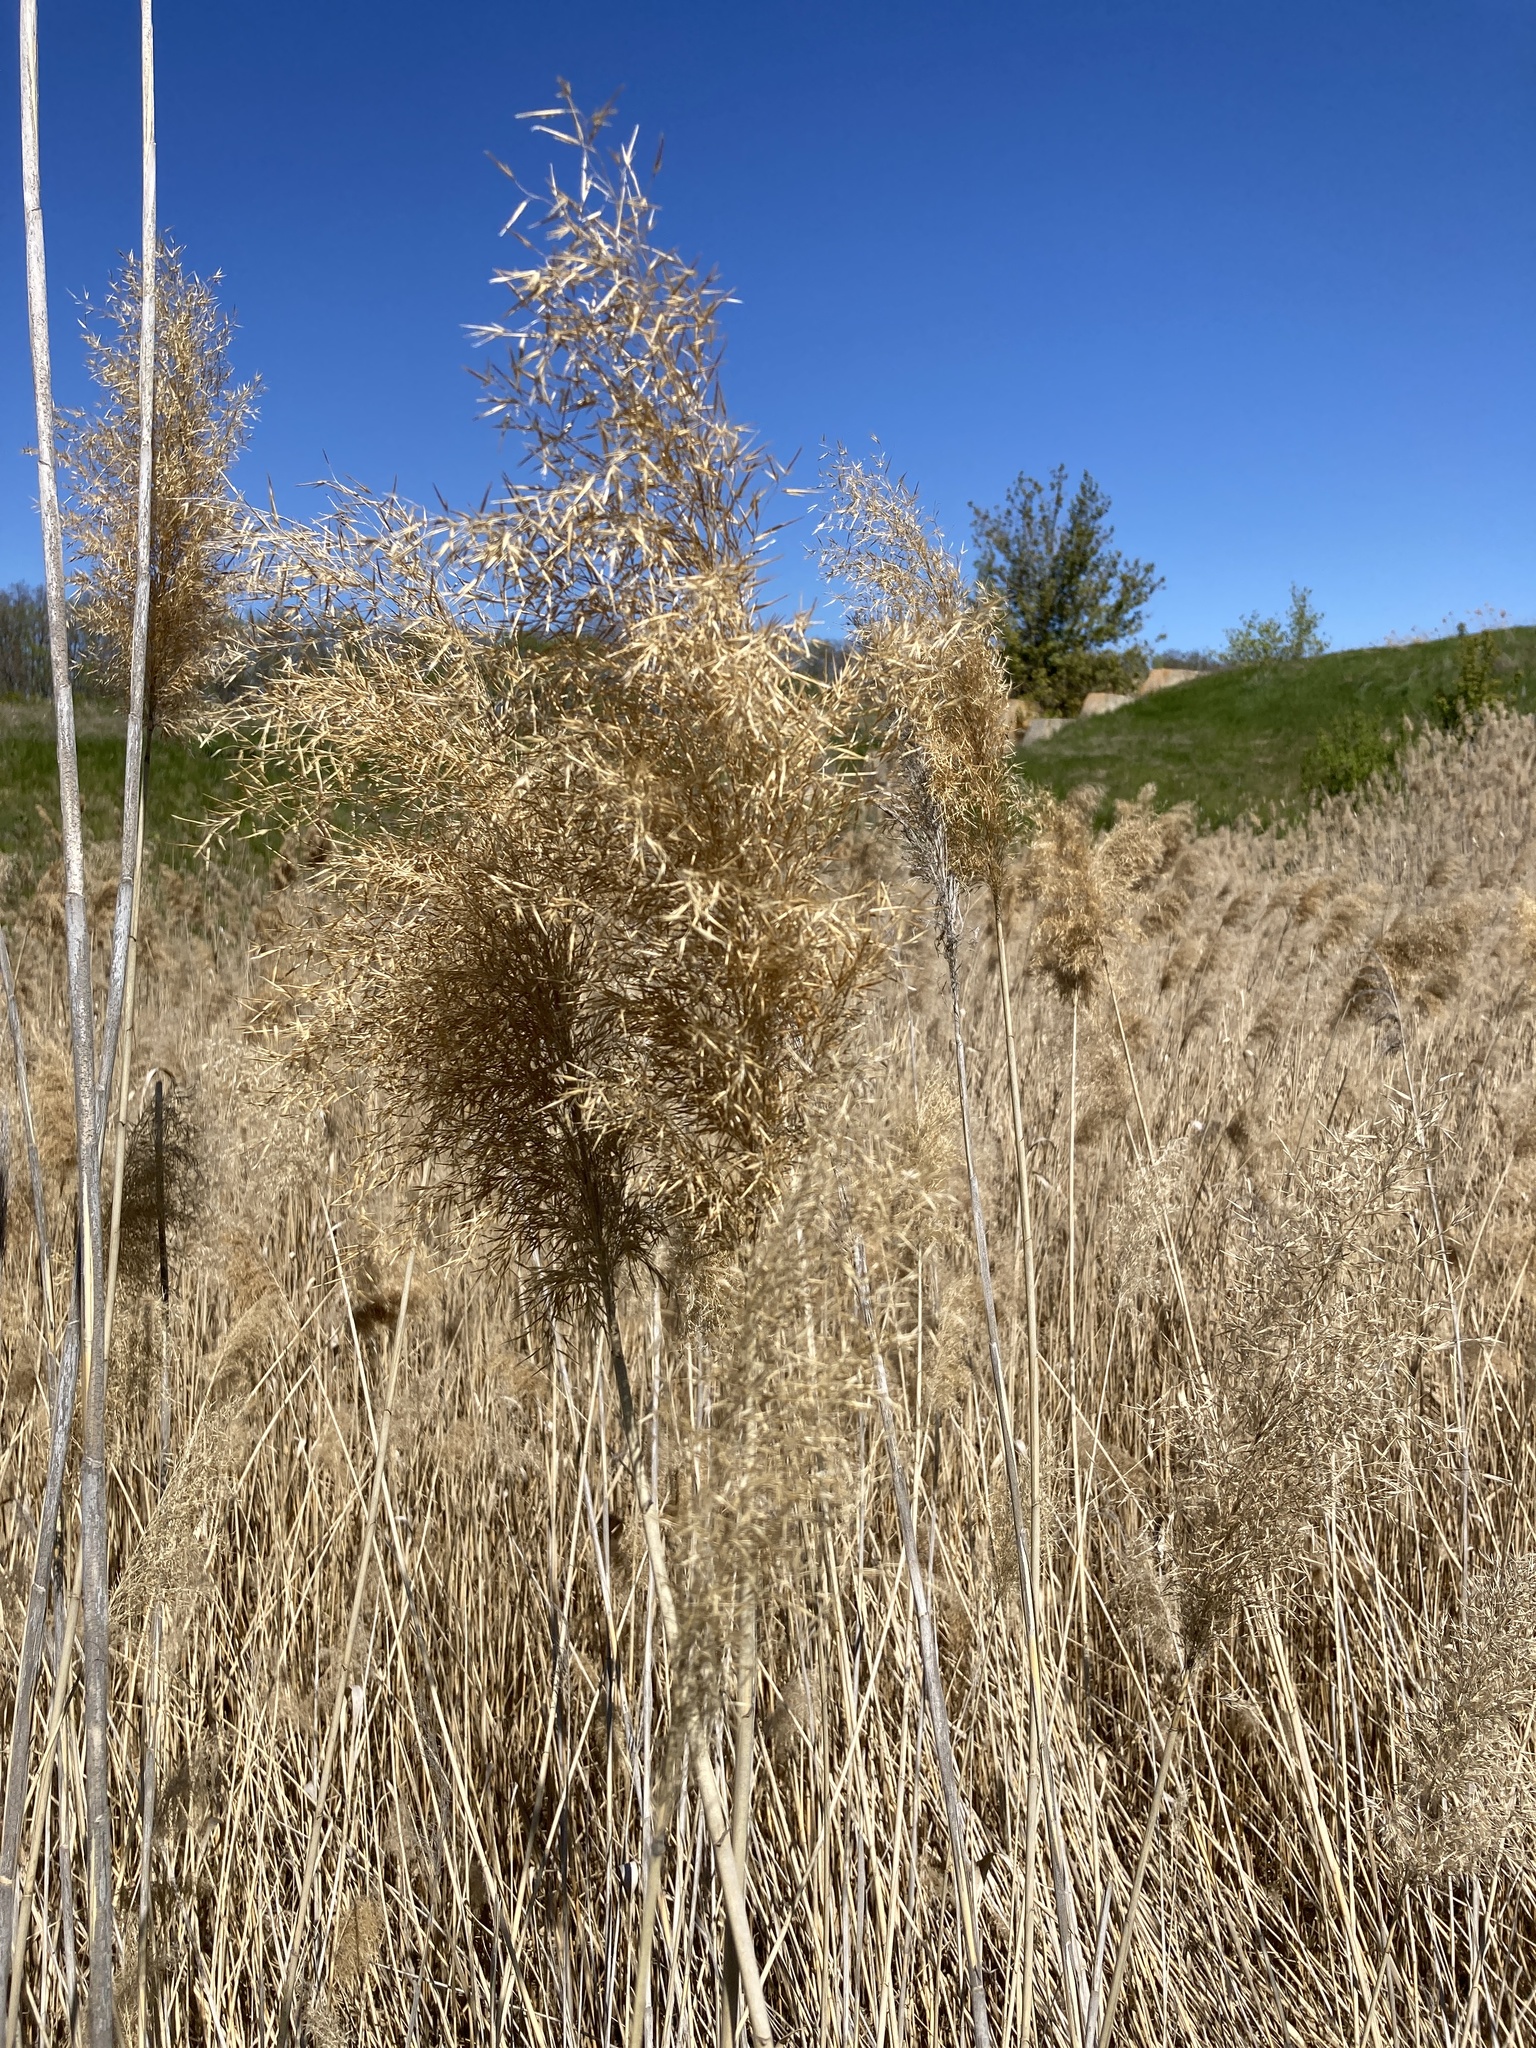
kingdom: Plantae
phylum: Tracheophyta
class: Liliopsida
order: Poales
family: Poaceae
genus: Phragmites
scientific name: Phragmites australis
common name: Common reed
